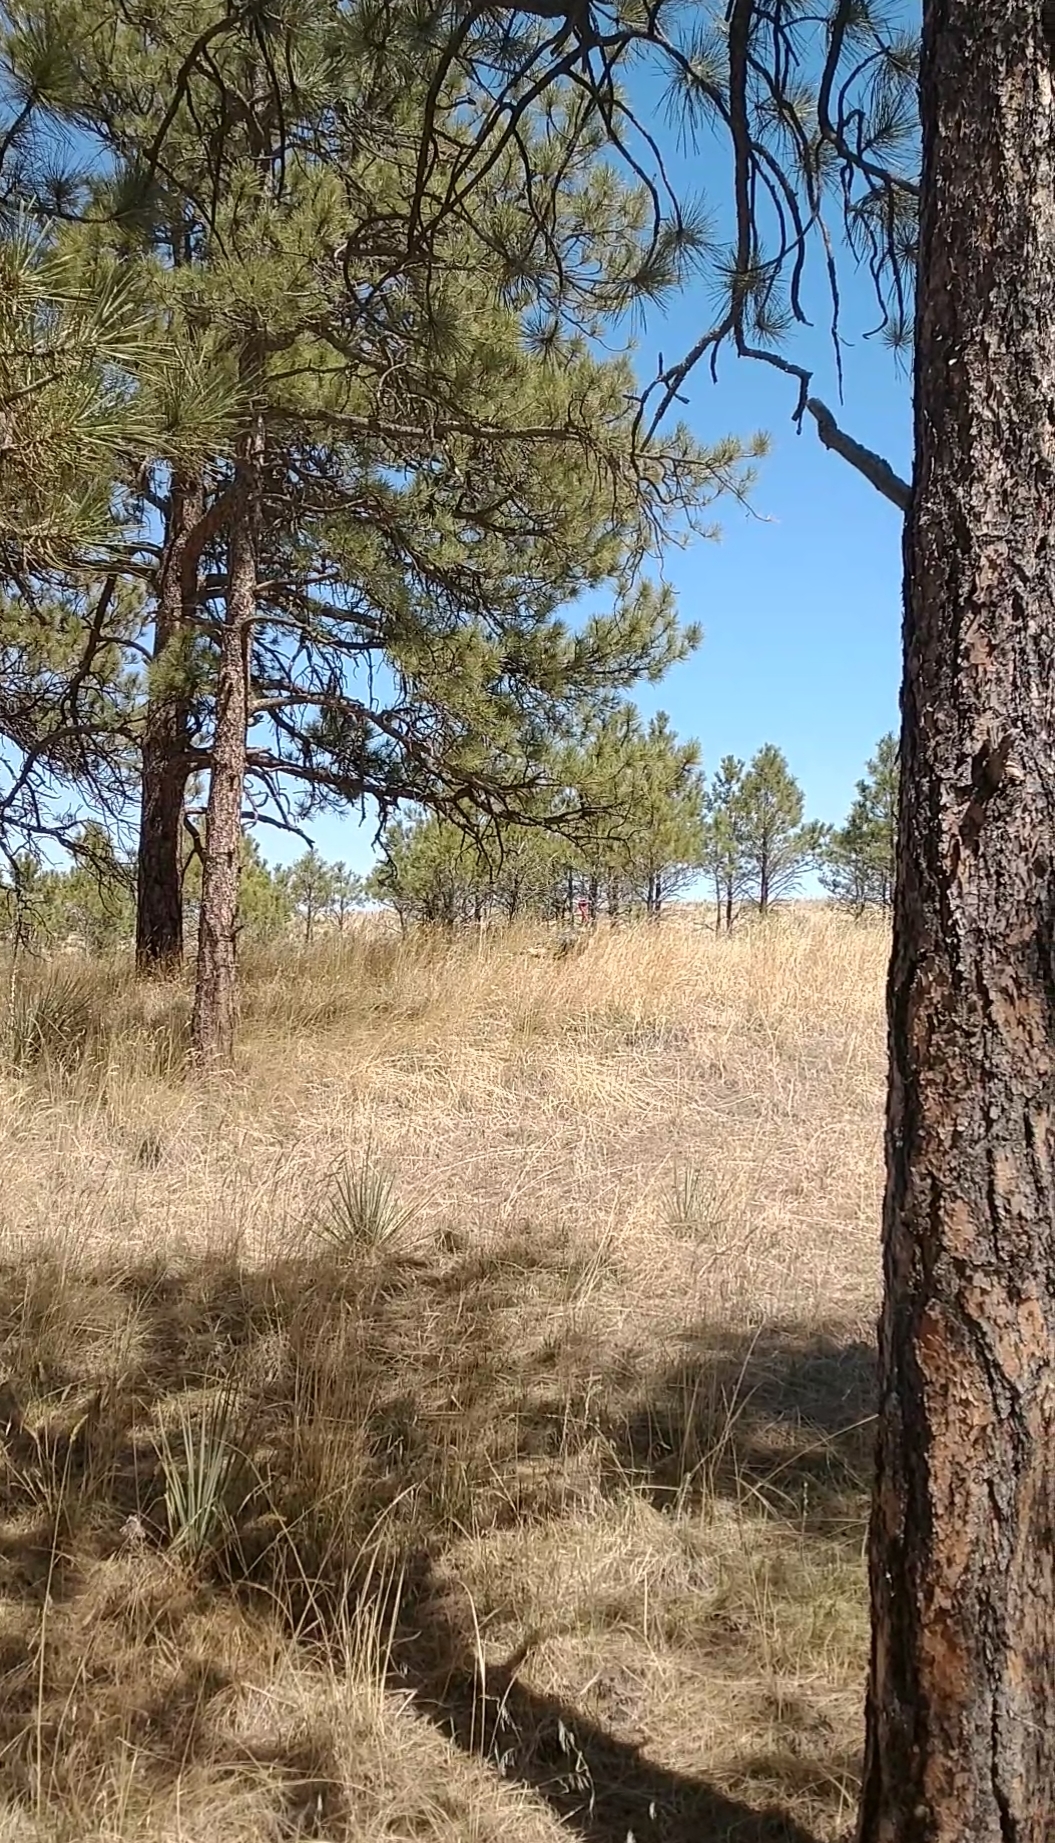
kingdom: Animalia
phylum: Chordata
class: Aves
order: Galliformes
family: Phasianidae
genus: Meleagris
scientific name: Meleagris gallopavo
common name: Wild turkey
